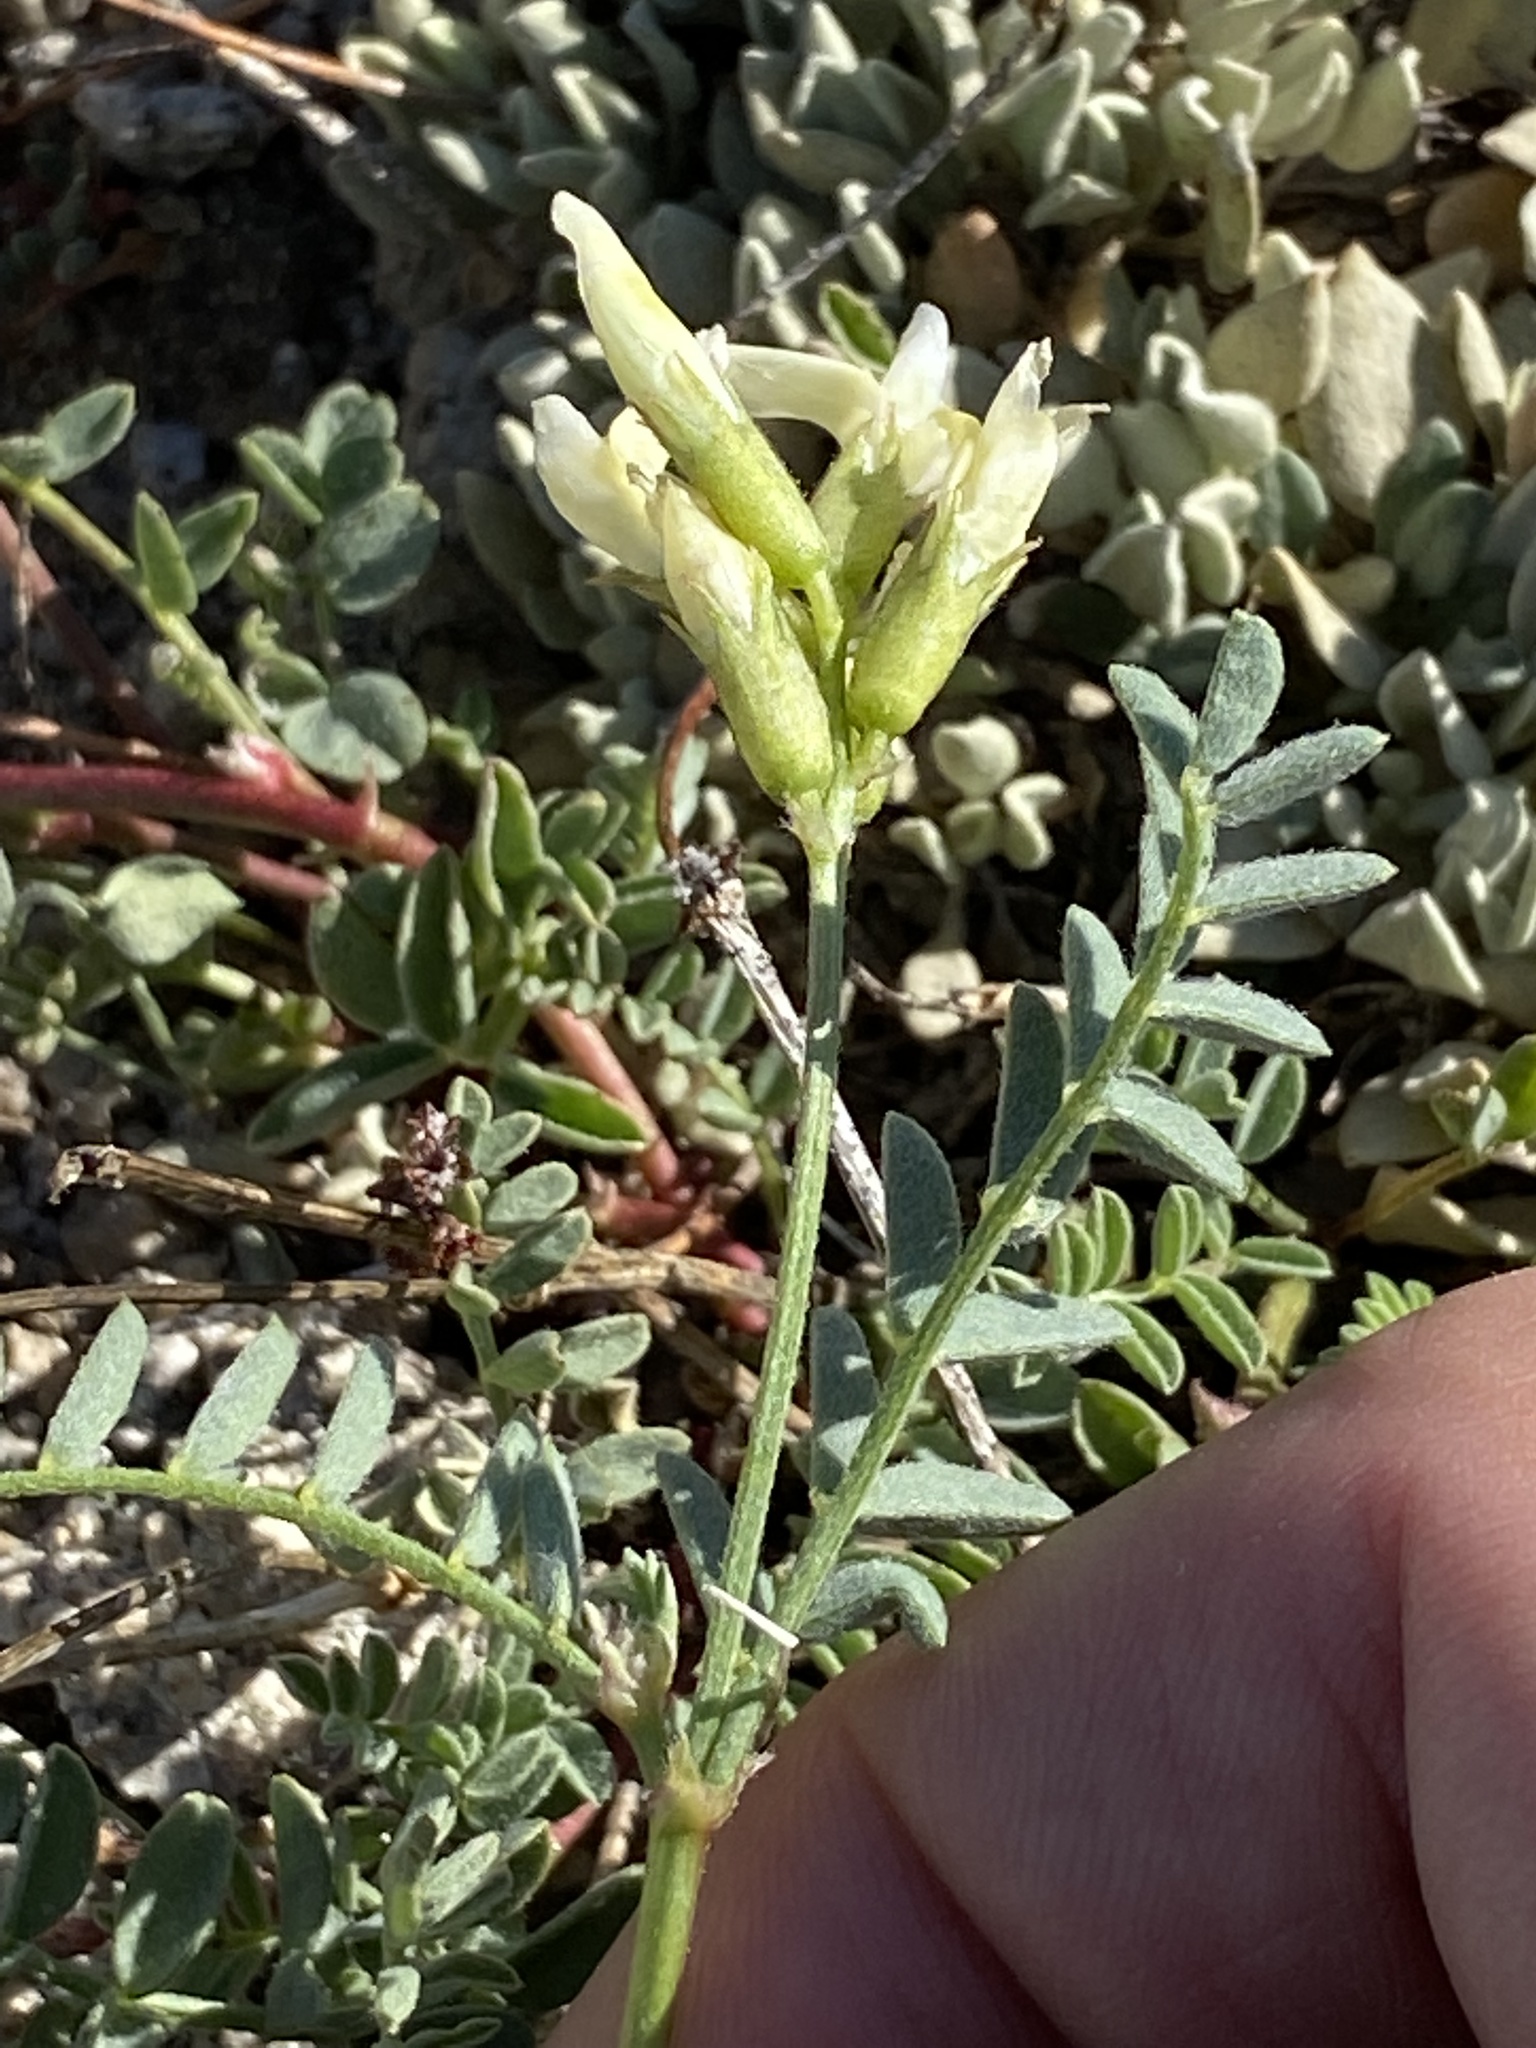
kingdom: Plantae
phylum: Tracheophyta
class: Magnoliopsida
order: Fabales
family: Fabaceae
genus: Astragalus
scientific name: Astragalus bolanderi
